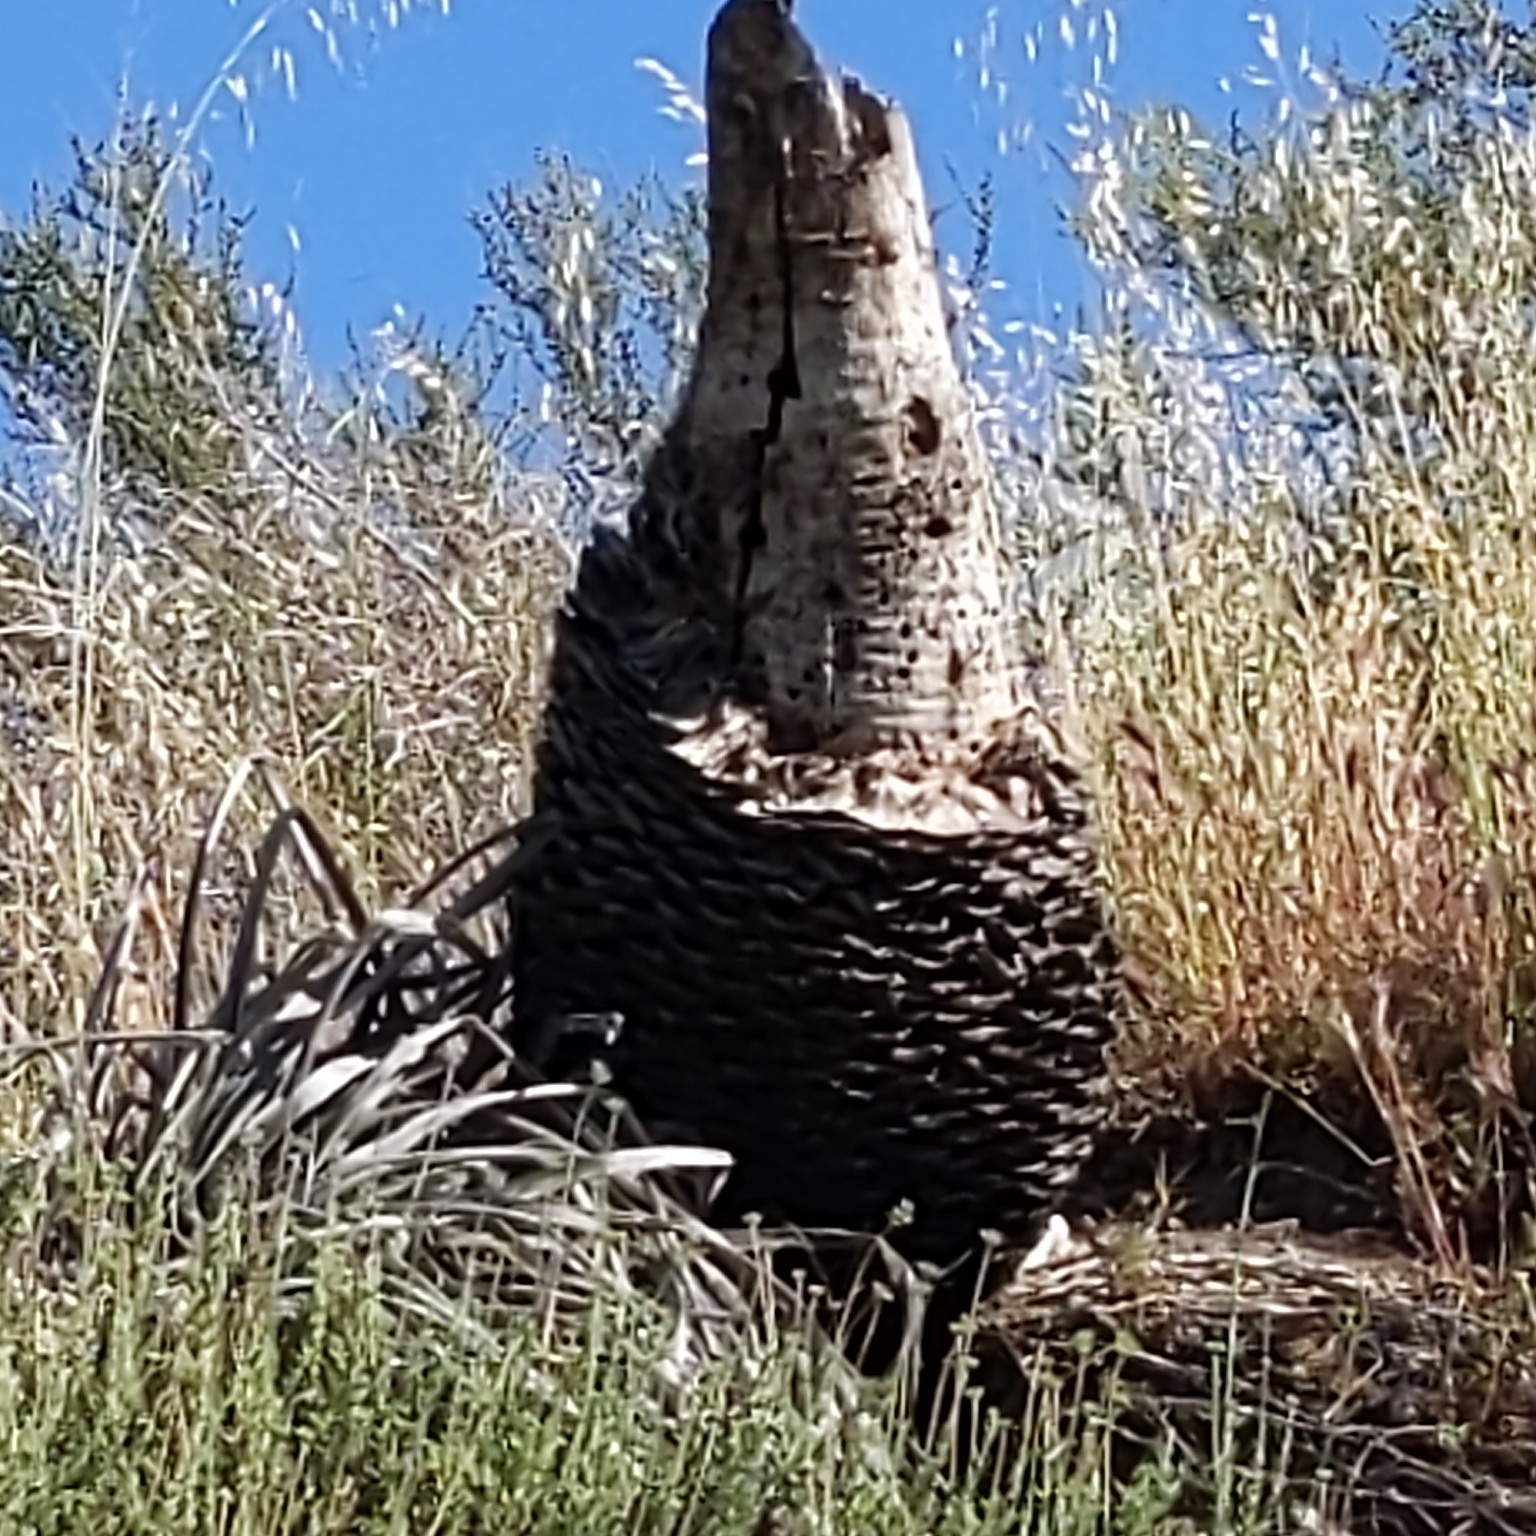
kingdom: Plantae
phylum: Tracheophyta
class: Liliopsida
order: Asparagales
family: Asparagaceae
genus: Hesperoyucca
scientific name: Hesperoyucca whipplei
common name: Our lord's-candle
